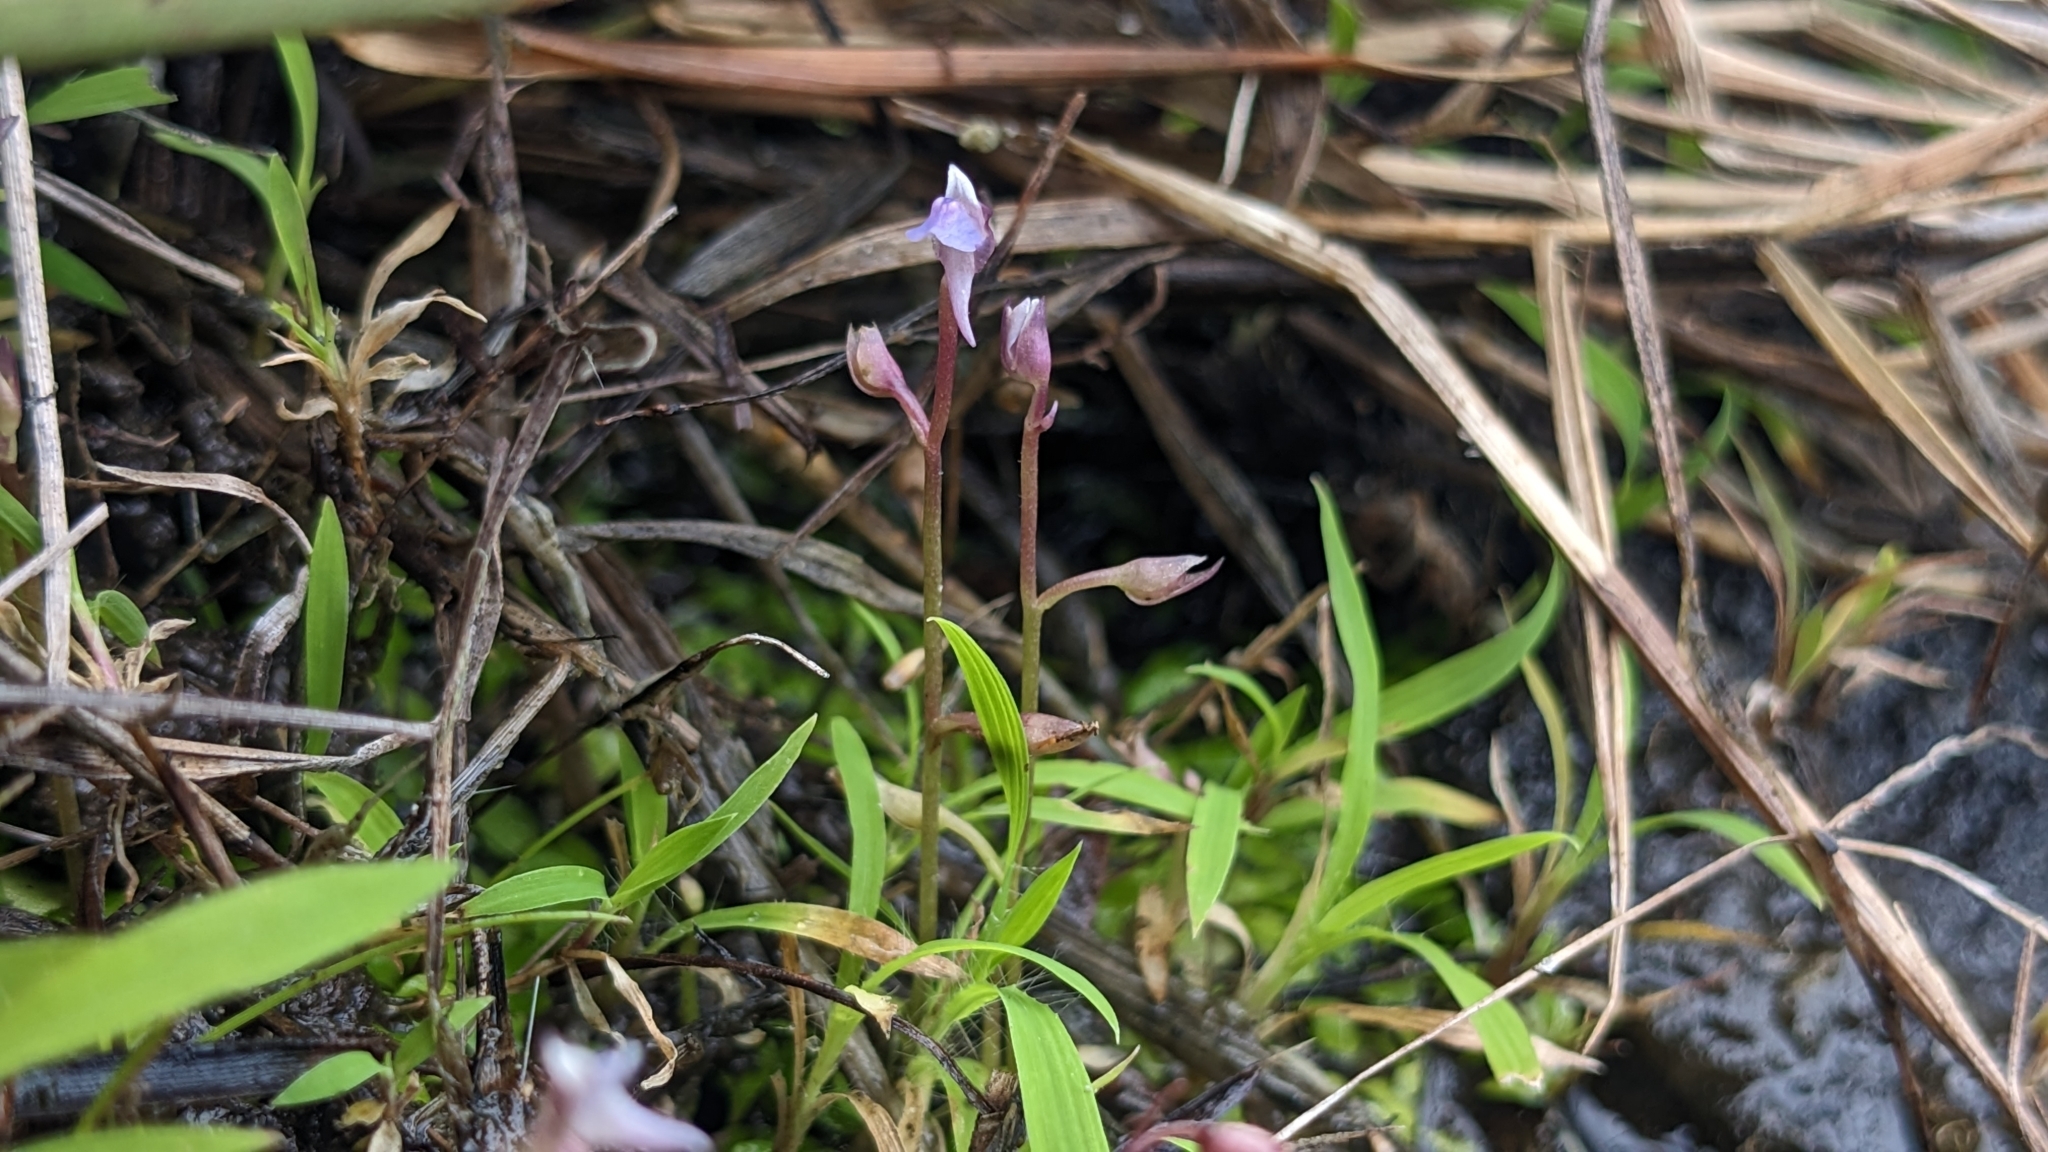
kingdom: Plantae
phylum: Tracheophyta
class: Magnoliopsida
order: Lamiales
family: Lentibulariaceae
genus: Utricularia
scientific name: Utricularia heterosepala
